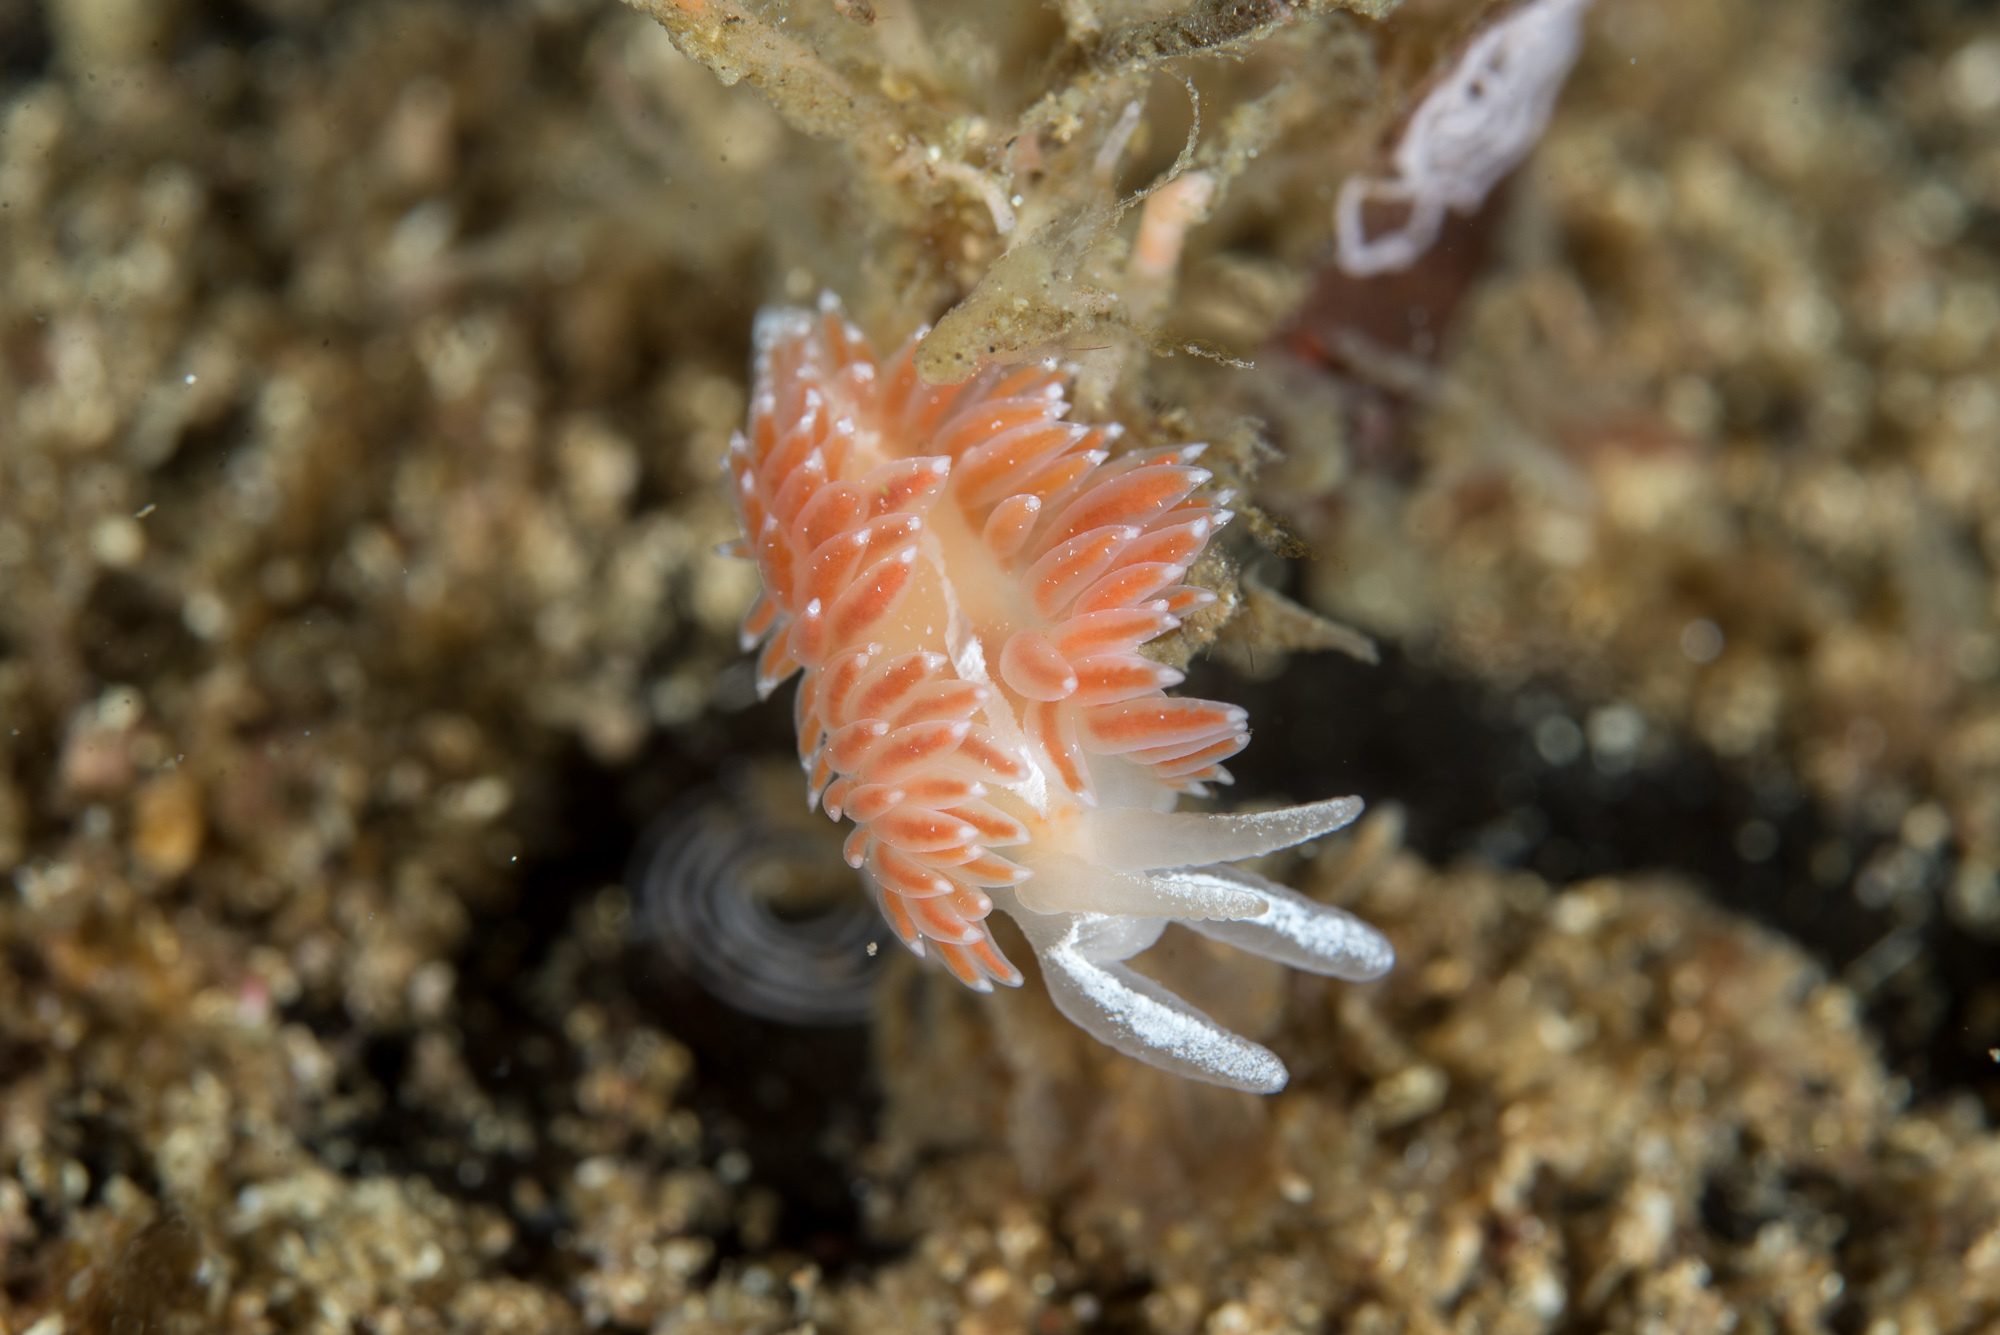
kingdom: Animalia
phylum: Mollusca
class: Gastropoda
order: Nudibranchia
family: Coryphellidae
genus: Coryphella
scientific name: Coryphella orjani
